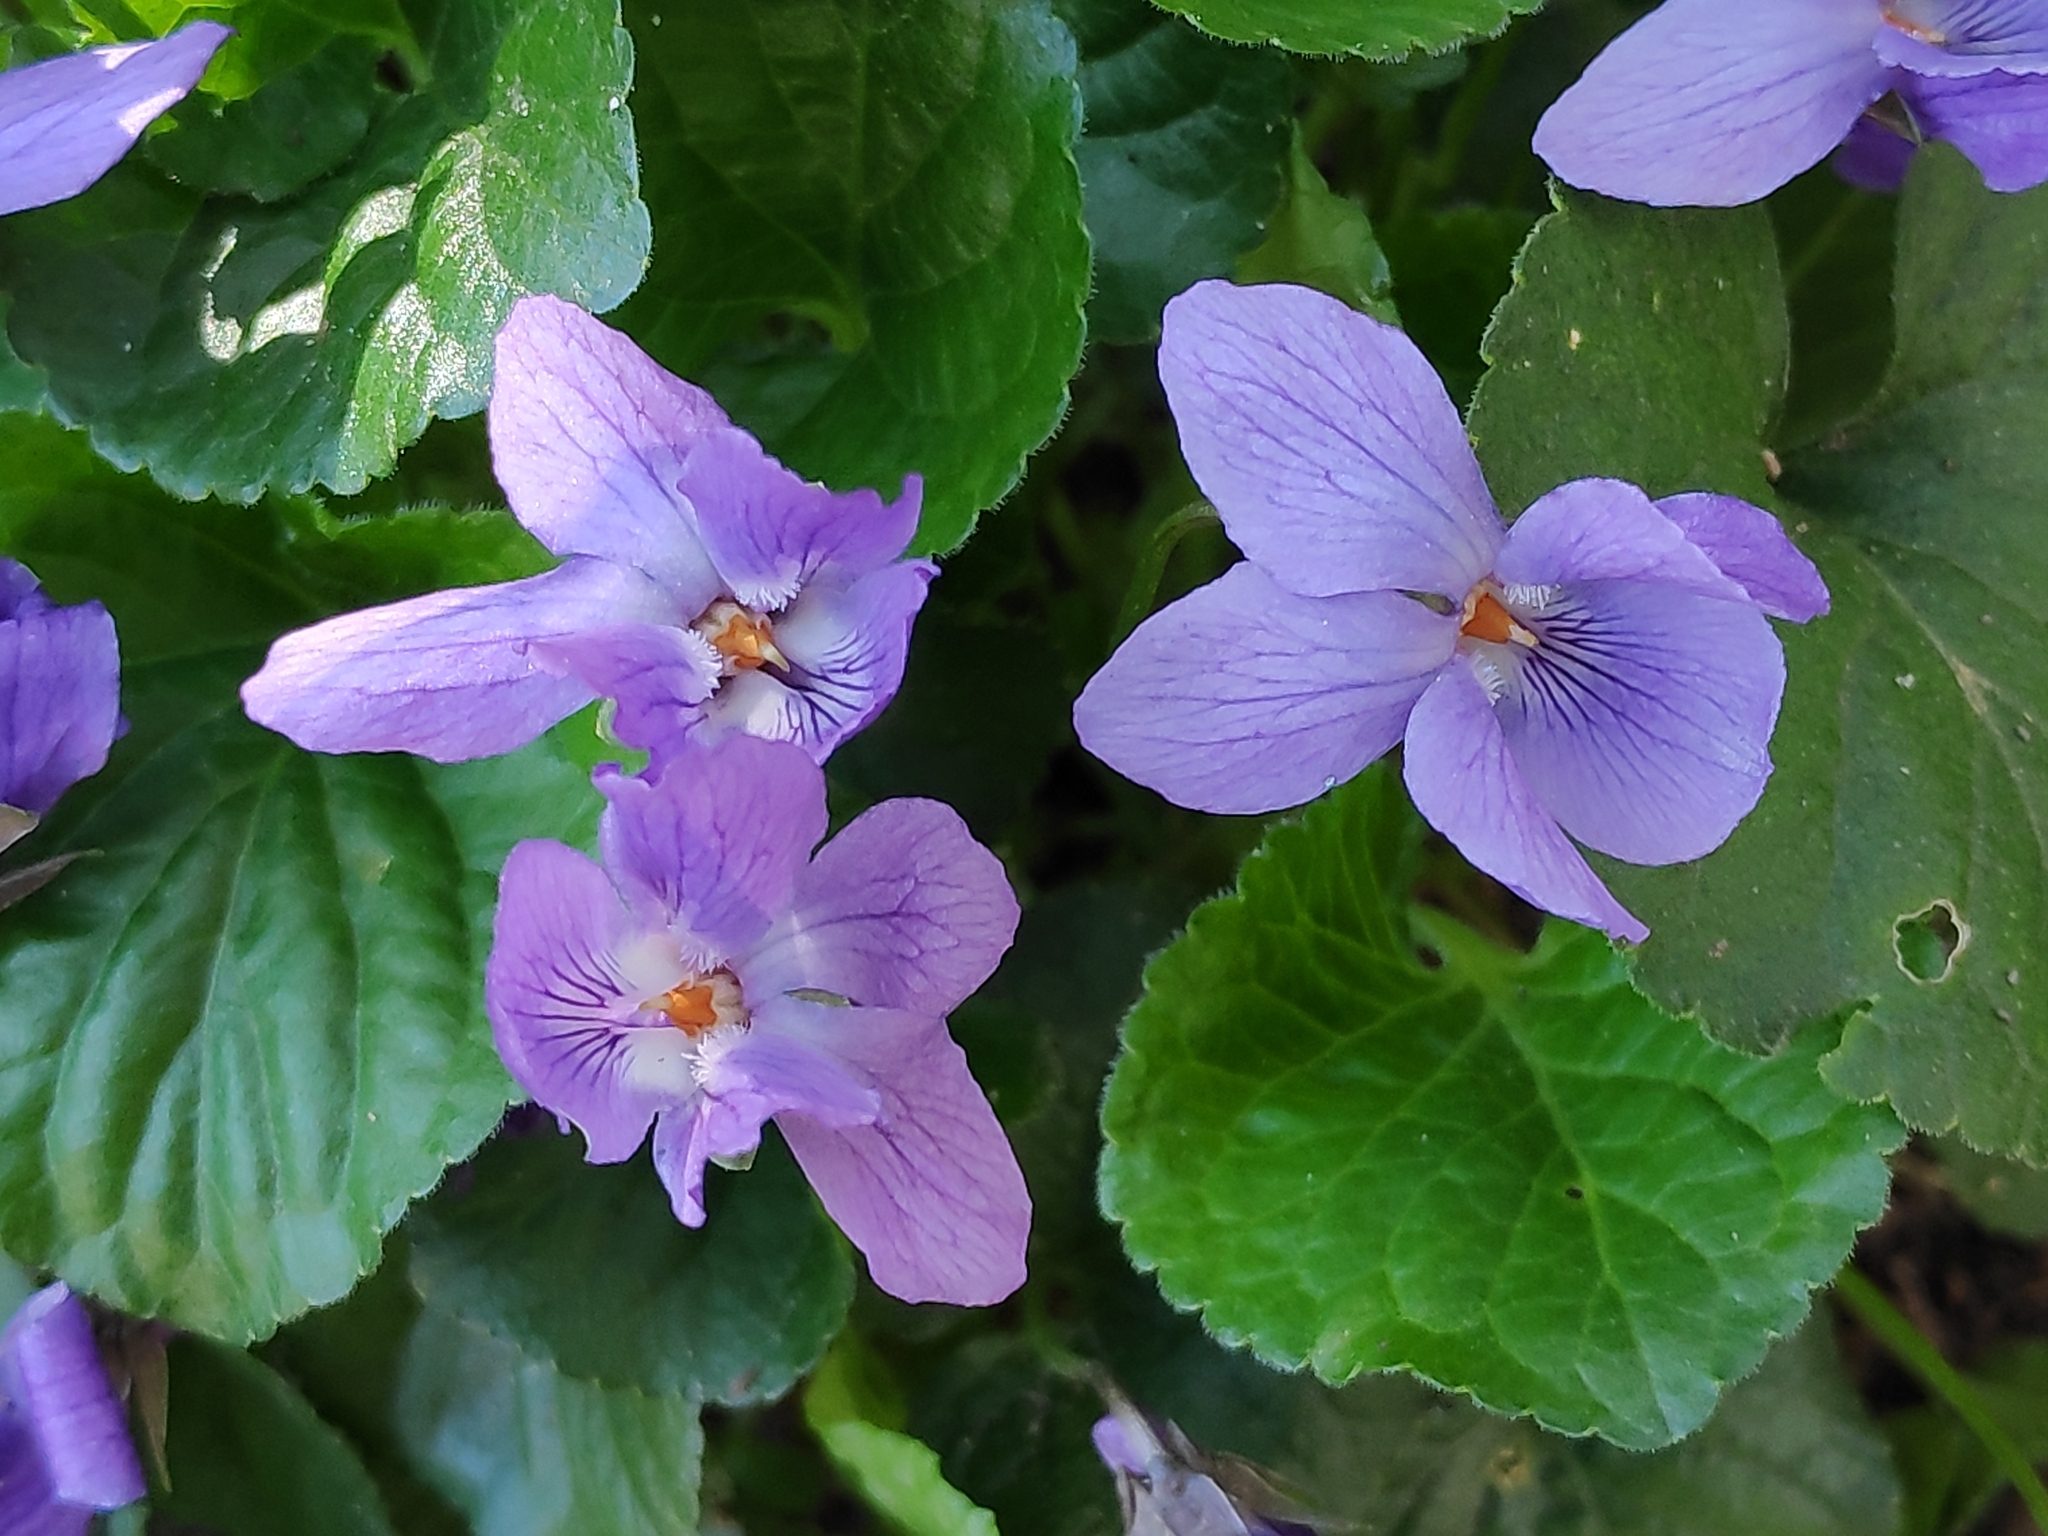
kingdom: Plantae
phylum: Tracheophyta
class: Magnoliopsida
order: Malpighiales
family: Violaceae
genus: Viola
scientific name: Viola reichenbachiana
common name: Early dog-violet
